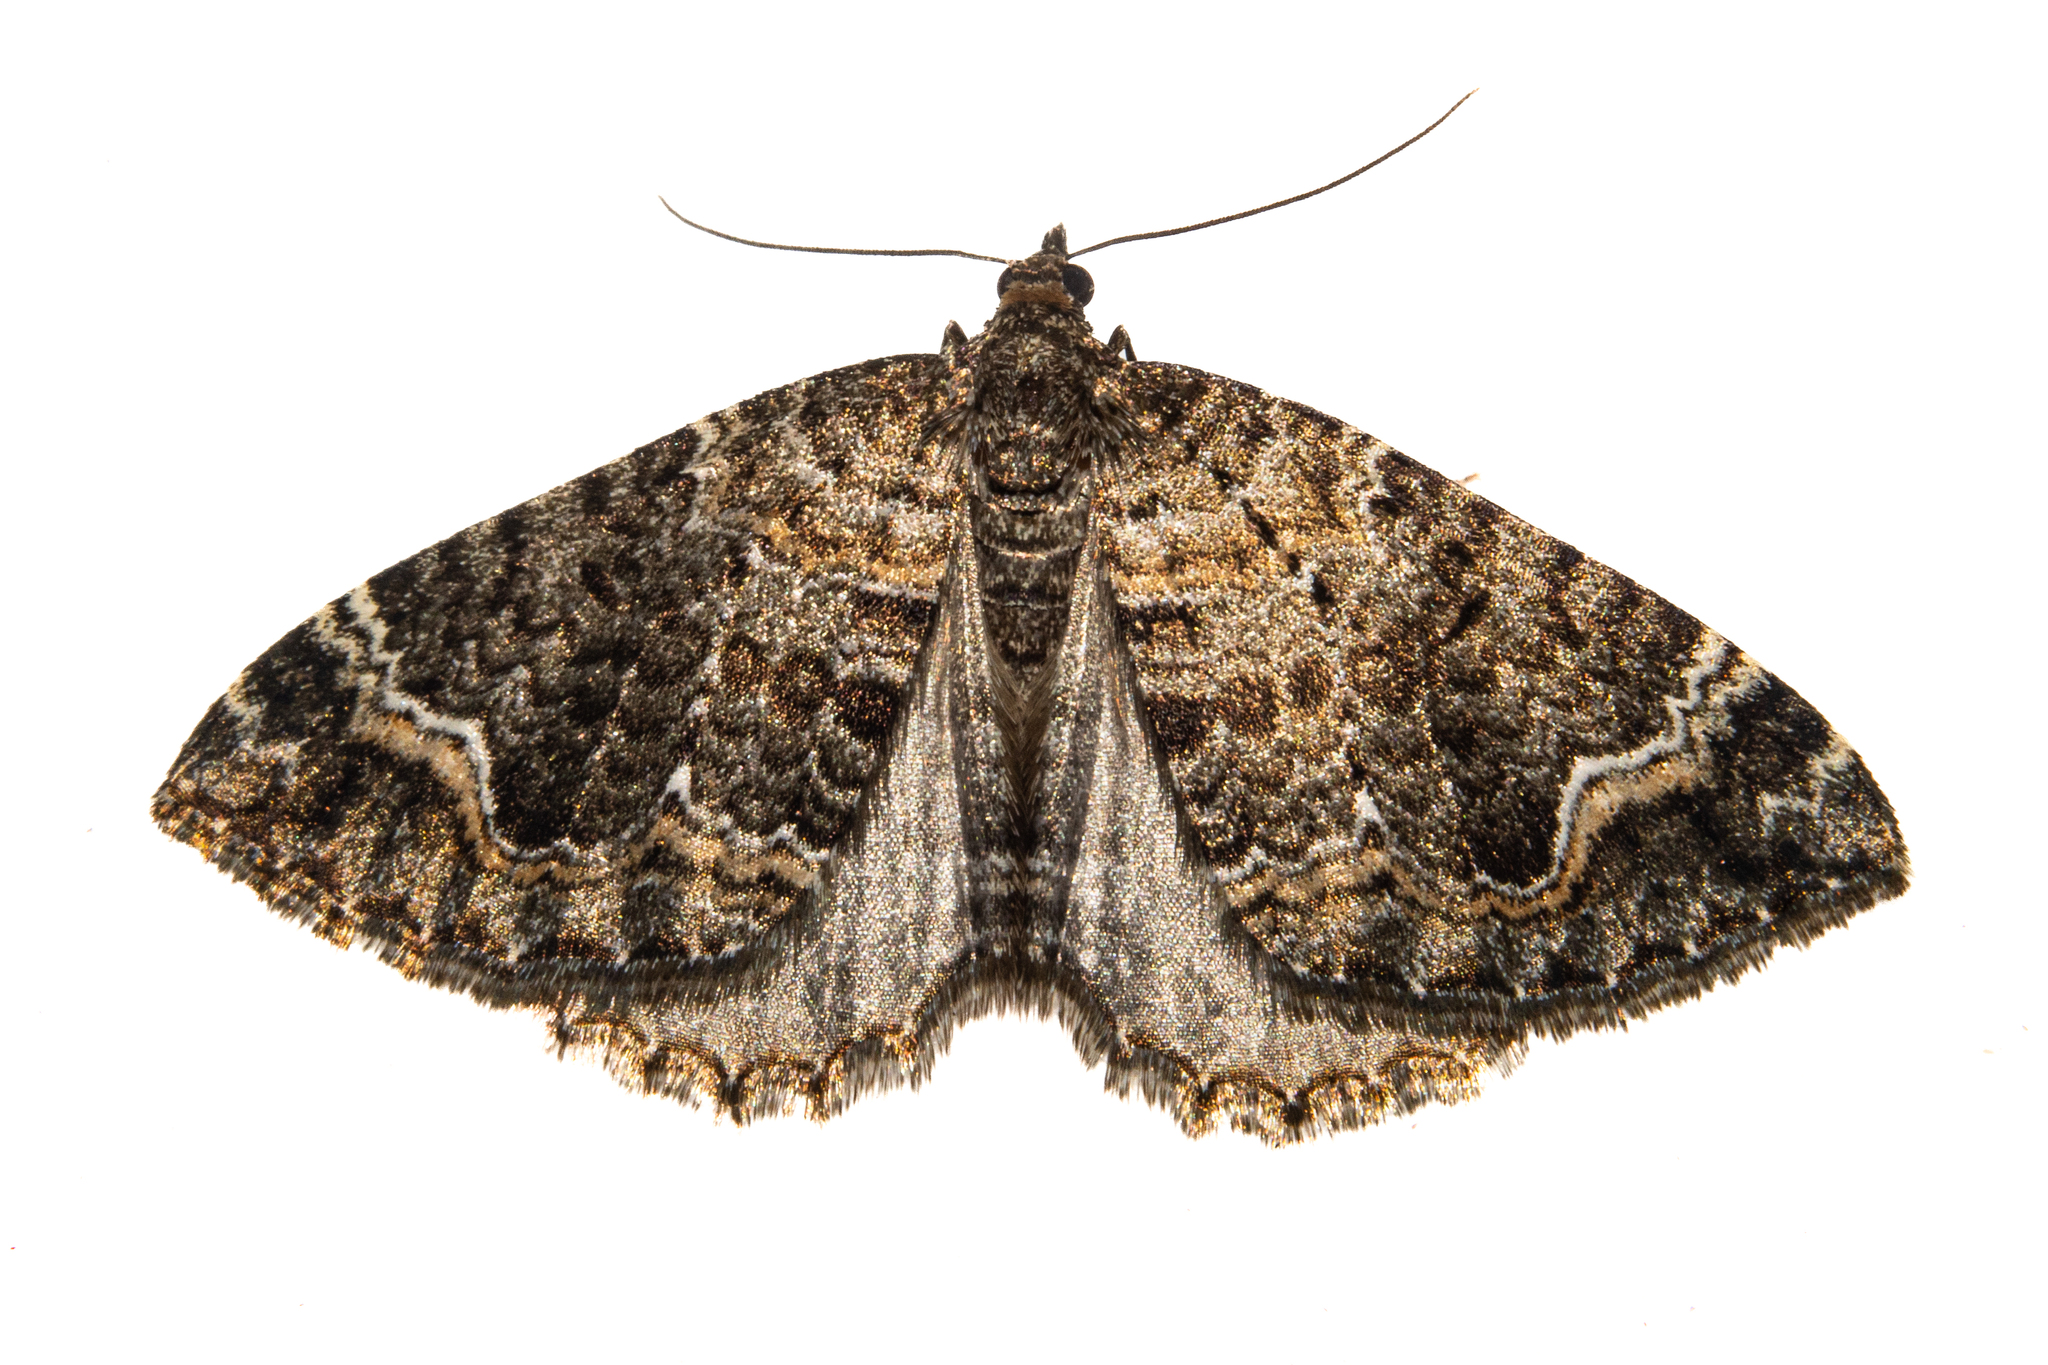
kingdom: Animalia
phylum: Arthropoda
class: Insecta
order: Lepidoptera
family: Geometridae
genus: Hydriomena
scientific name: Hydriomena hemizona
